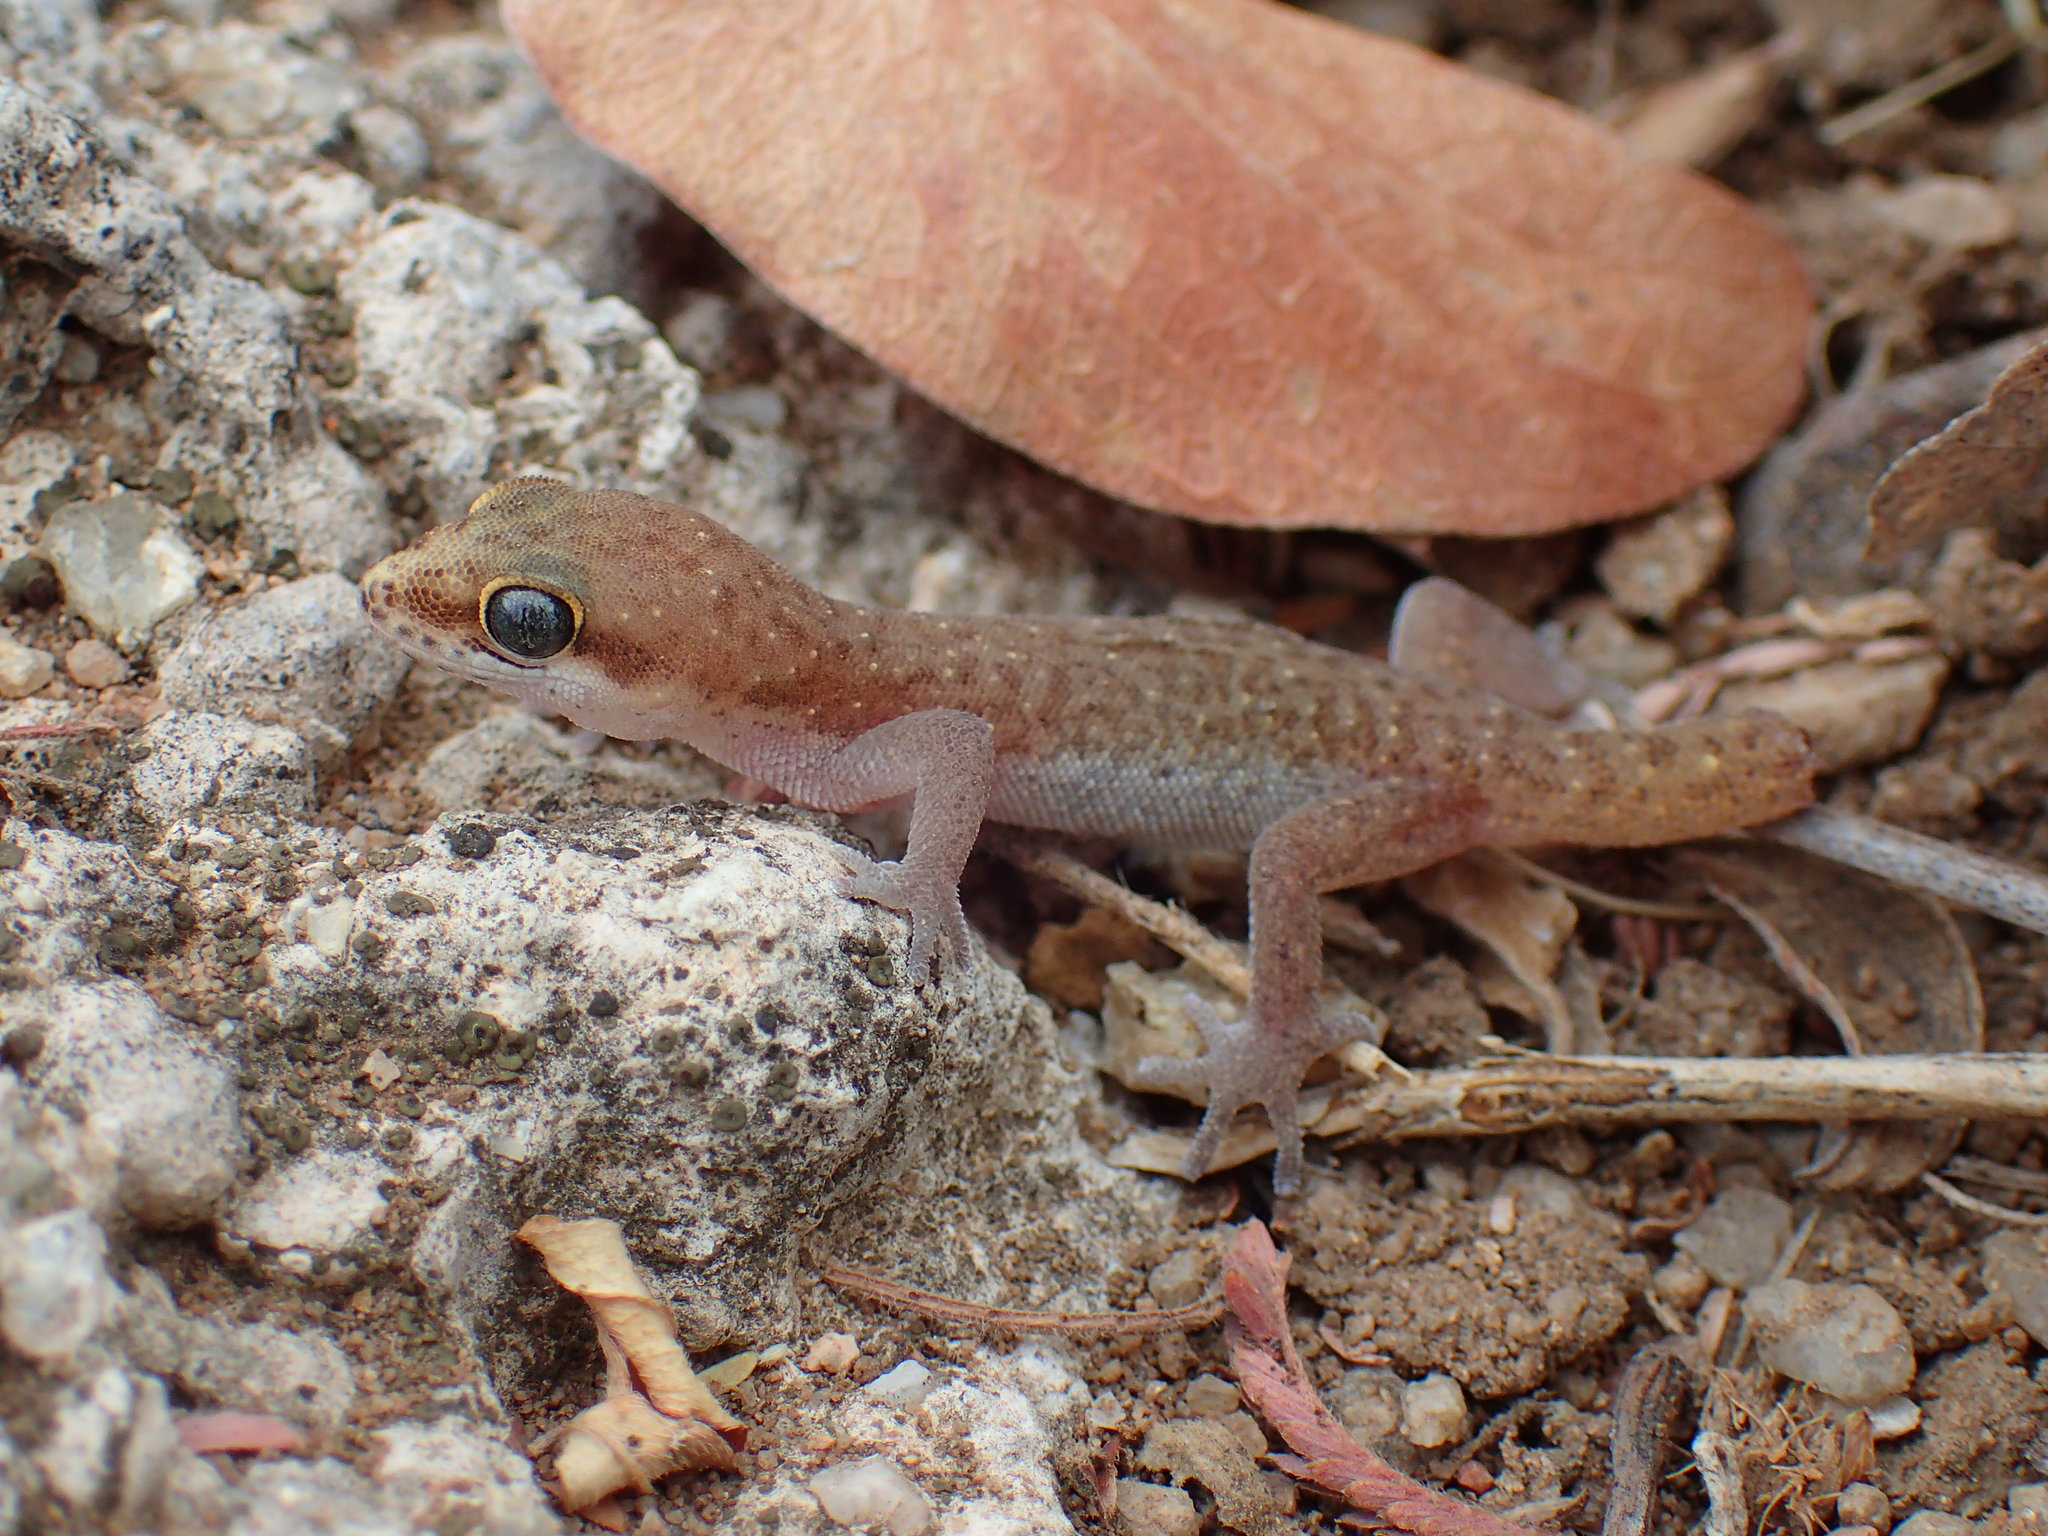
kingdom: Animalia
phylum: Chordata
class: Squamata
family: Gekkonidae
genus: Pachydactylus
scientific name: Pachydactylus punctatus
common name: Pointed thick-toed gecko
